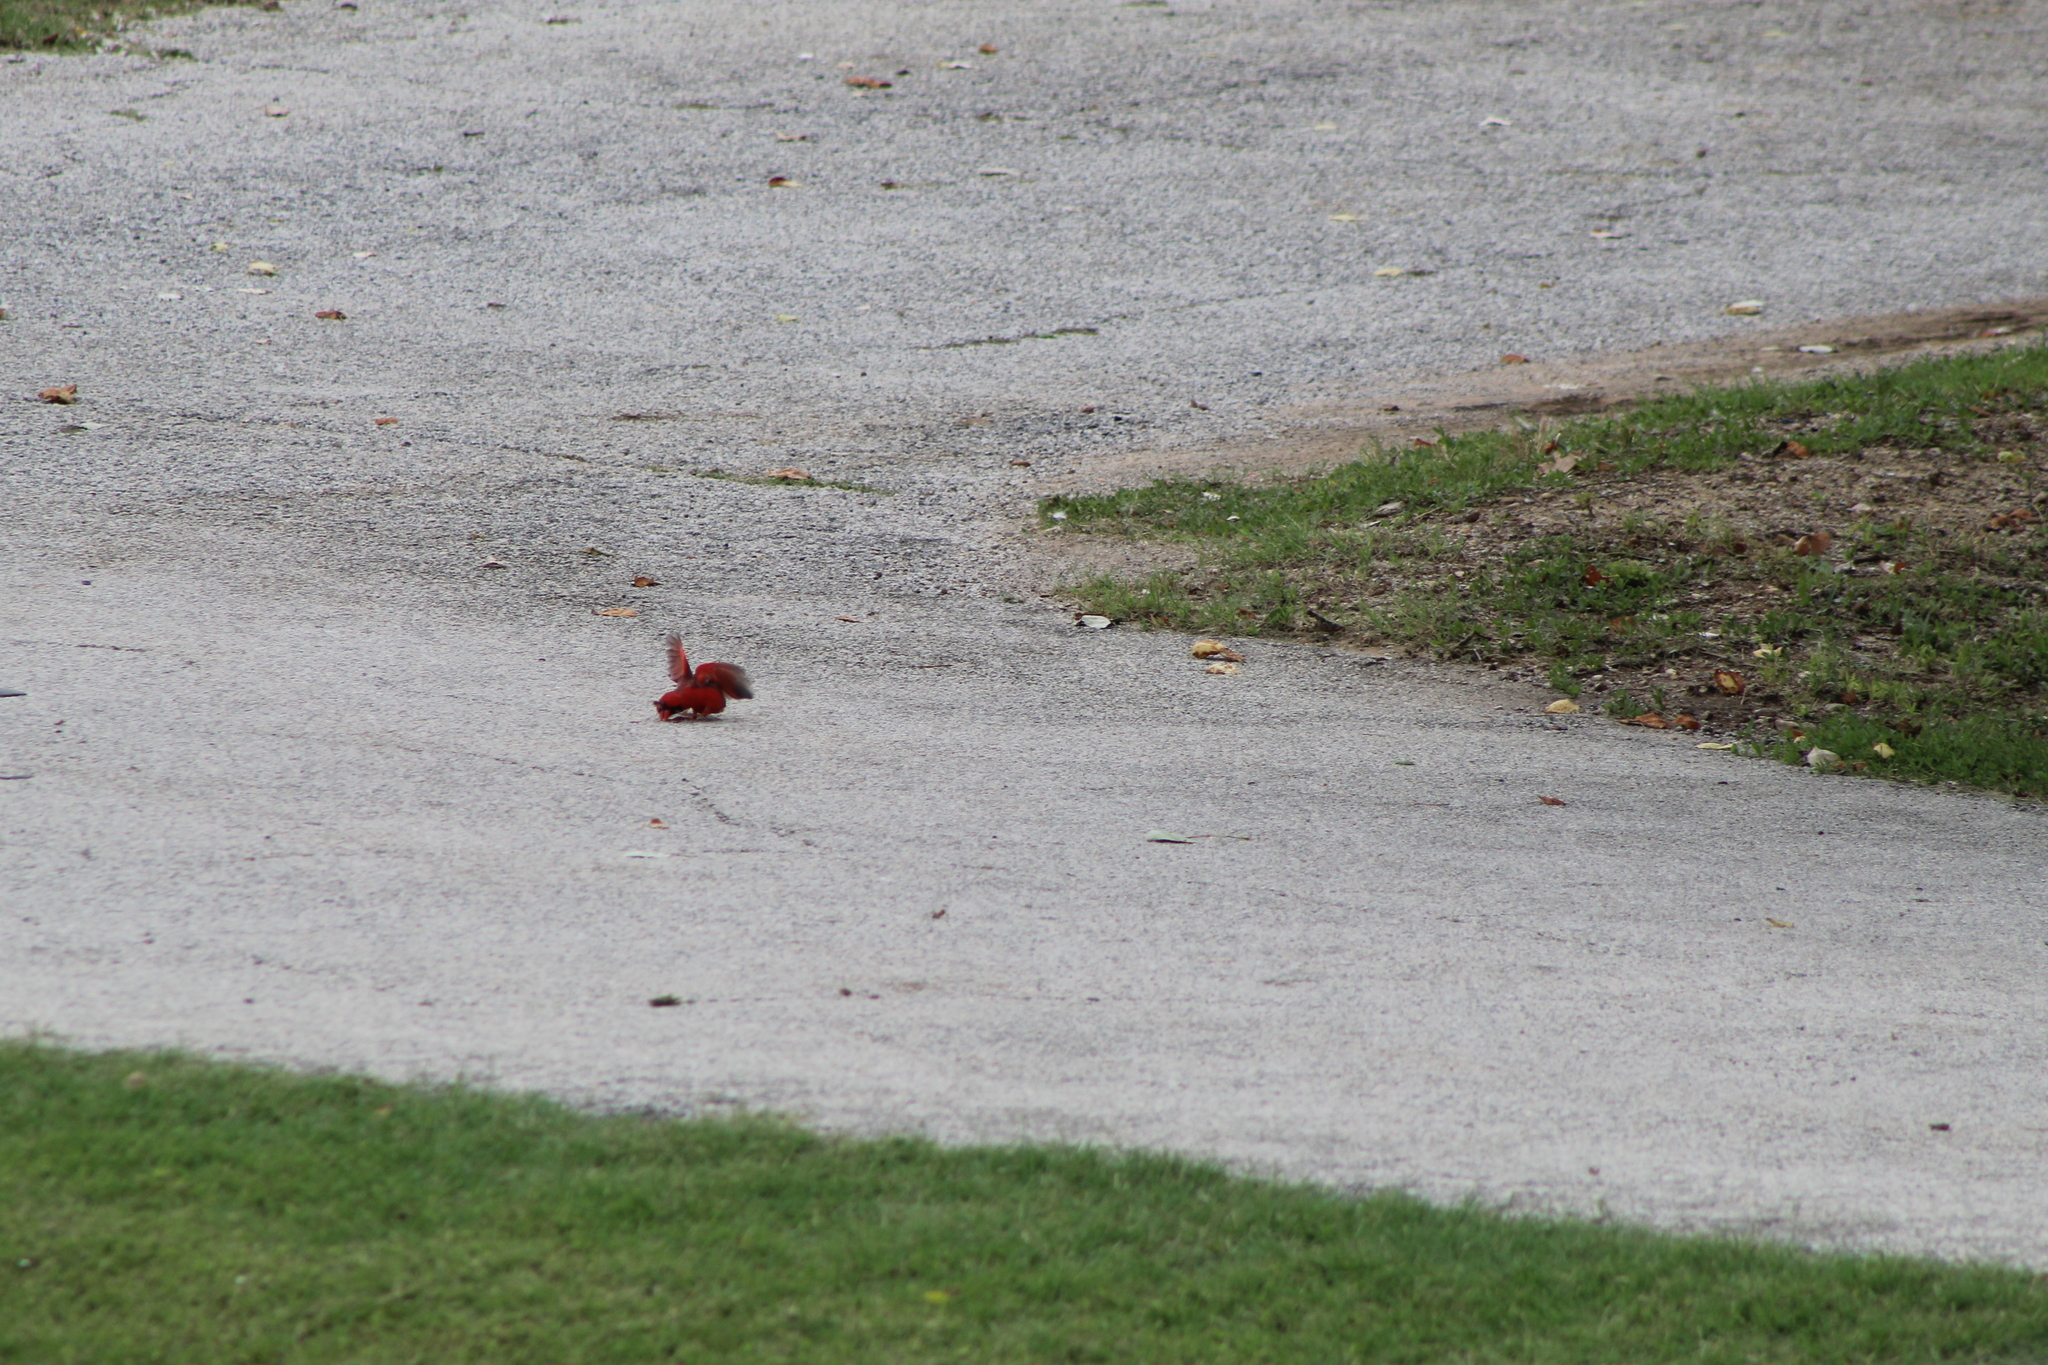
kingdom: Animalia
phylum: Chordata
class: Aves
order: Passeriformes
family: Cardinalidae
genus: Cardinalis
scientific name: Cardinalis cardinalis
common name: Northern cardinal
